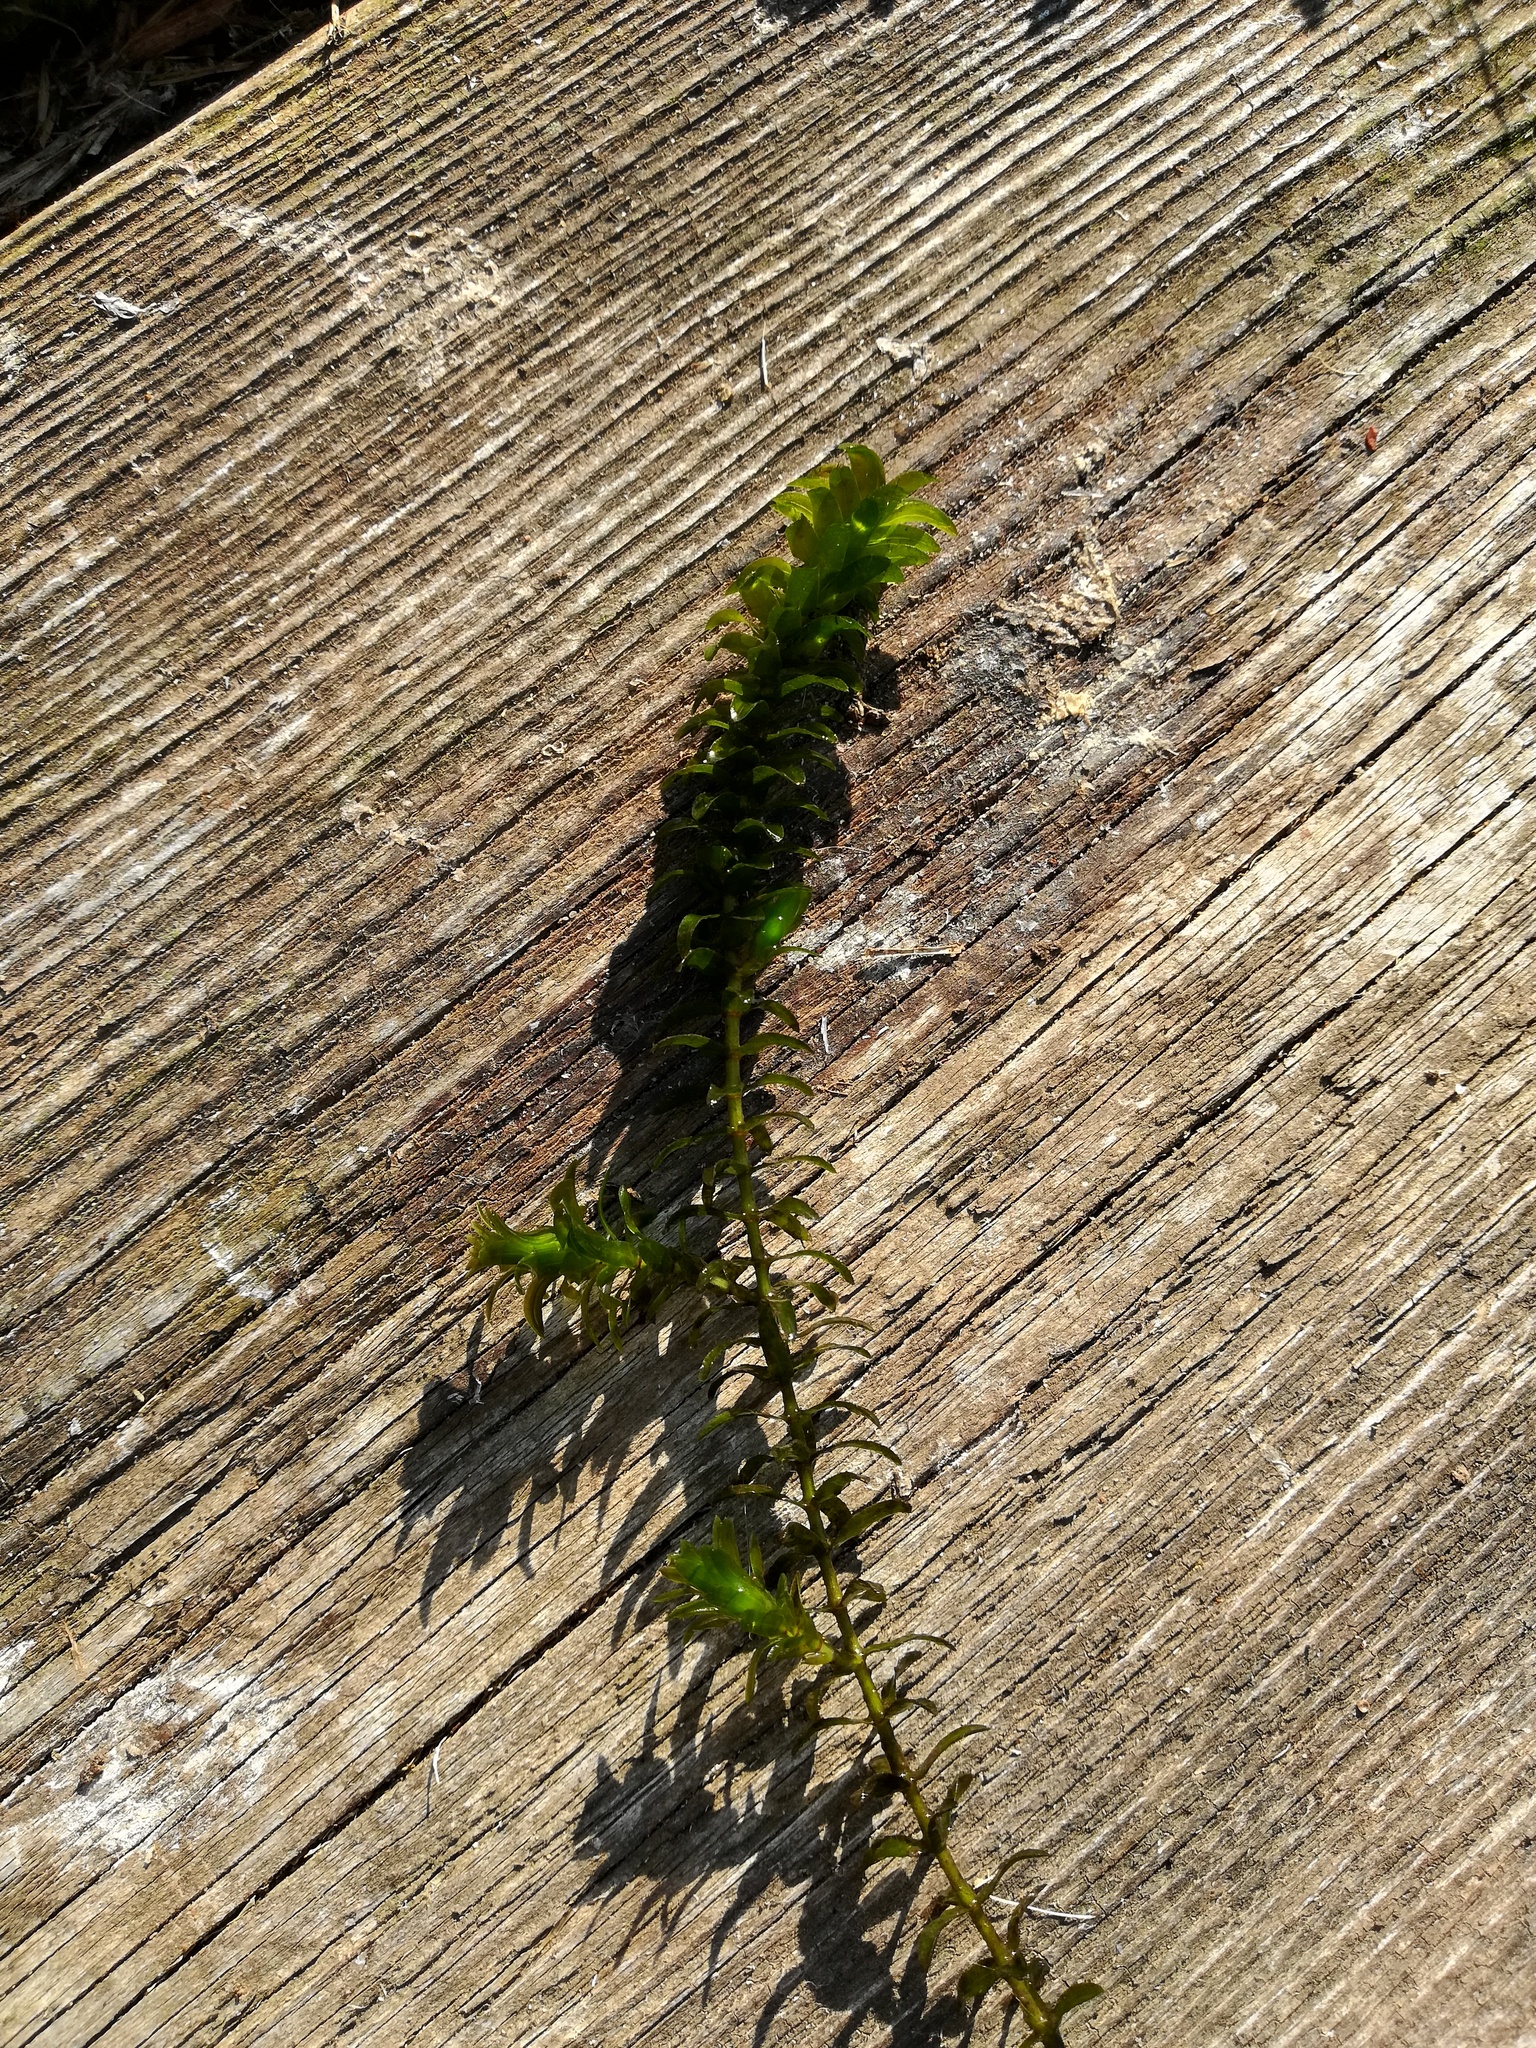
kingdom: Plantae
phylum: Tracheophyta
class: Liliopsida
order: Alismatales
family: Hydrocharitaceae
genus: Elodea
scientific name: Elodea canadensis
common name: Canadian waterweed
